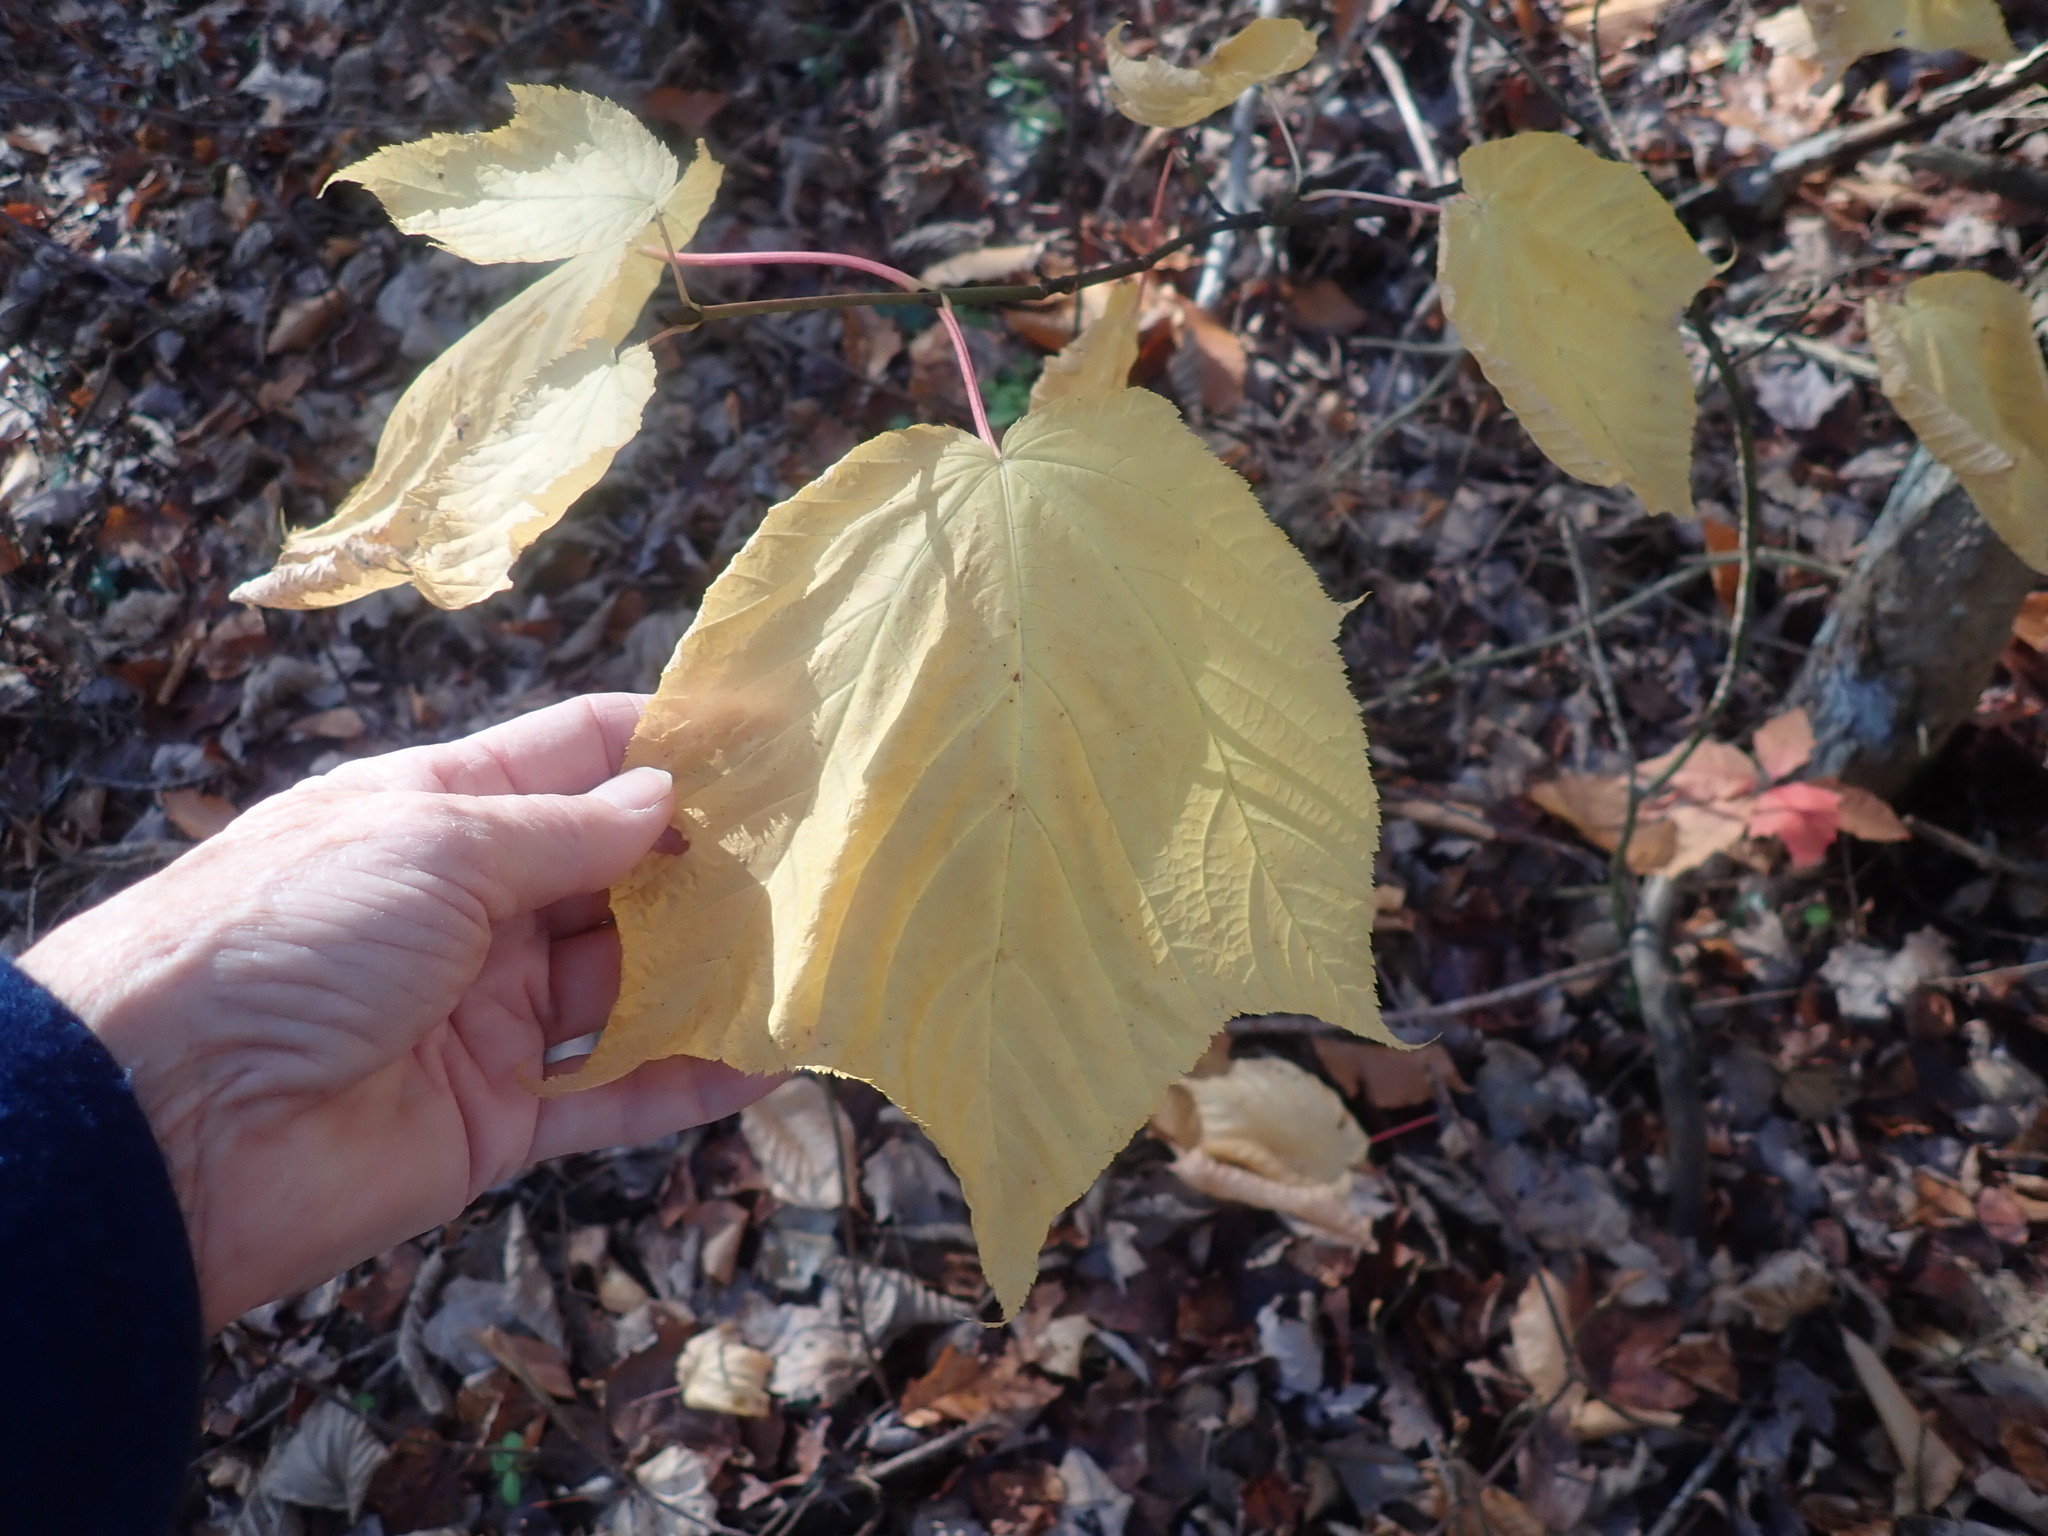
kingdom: Plantae
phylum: Tracheophyta
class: Magnoliopsida
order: Sapindales
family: Sapindaceae
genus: Acer
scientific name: Acer pensylvanicum
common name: Moosewood
